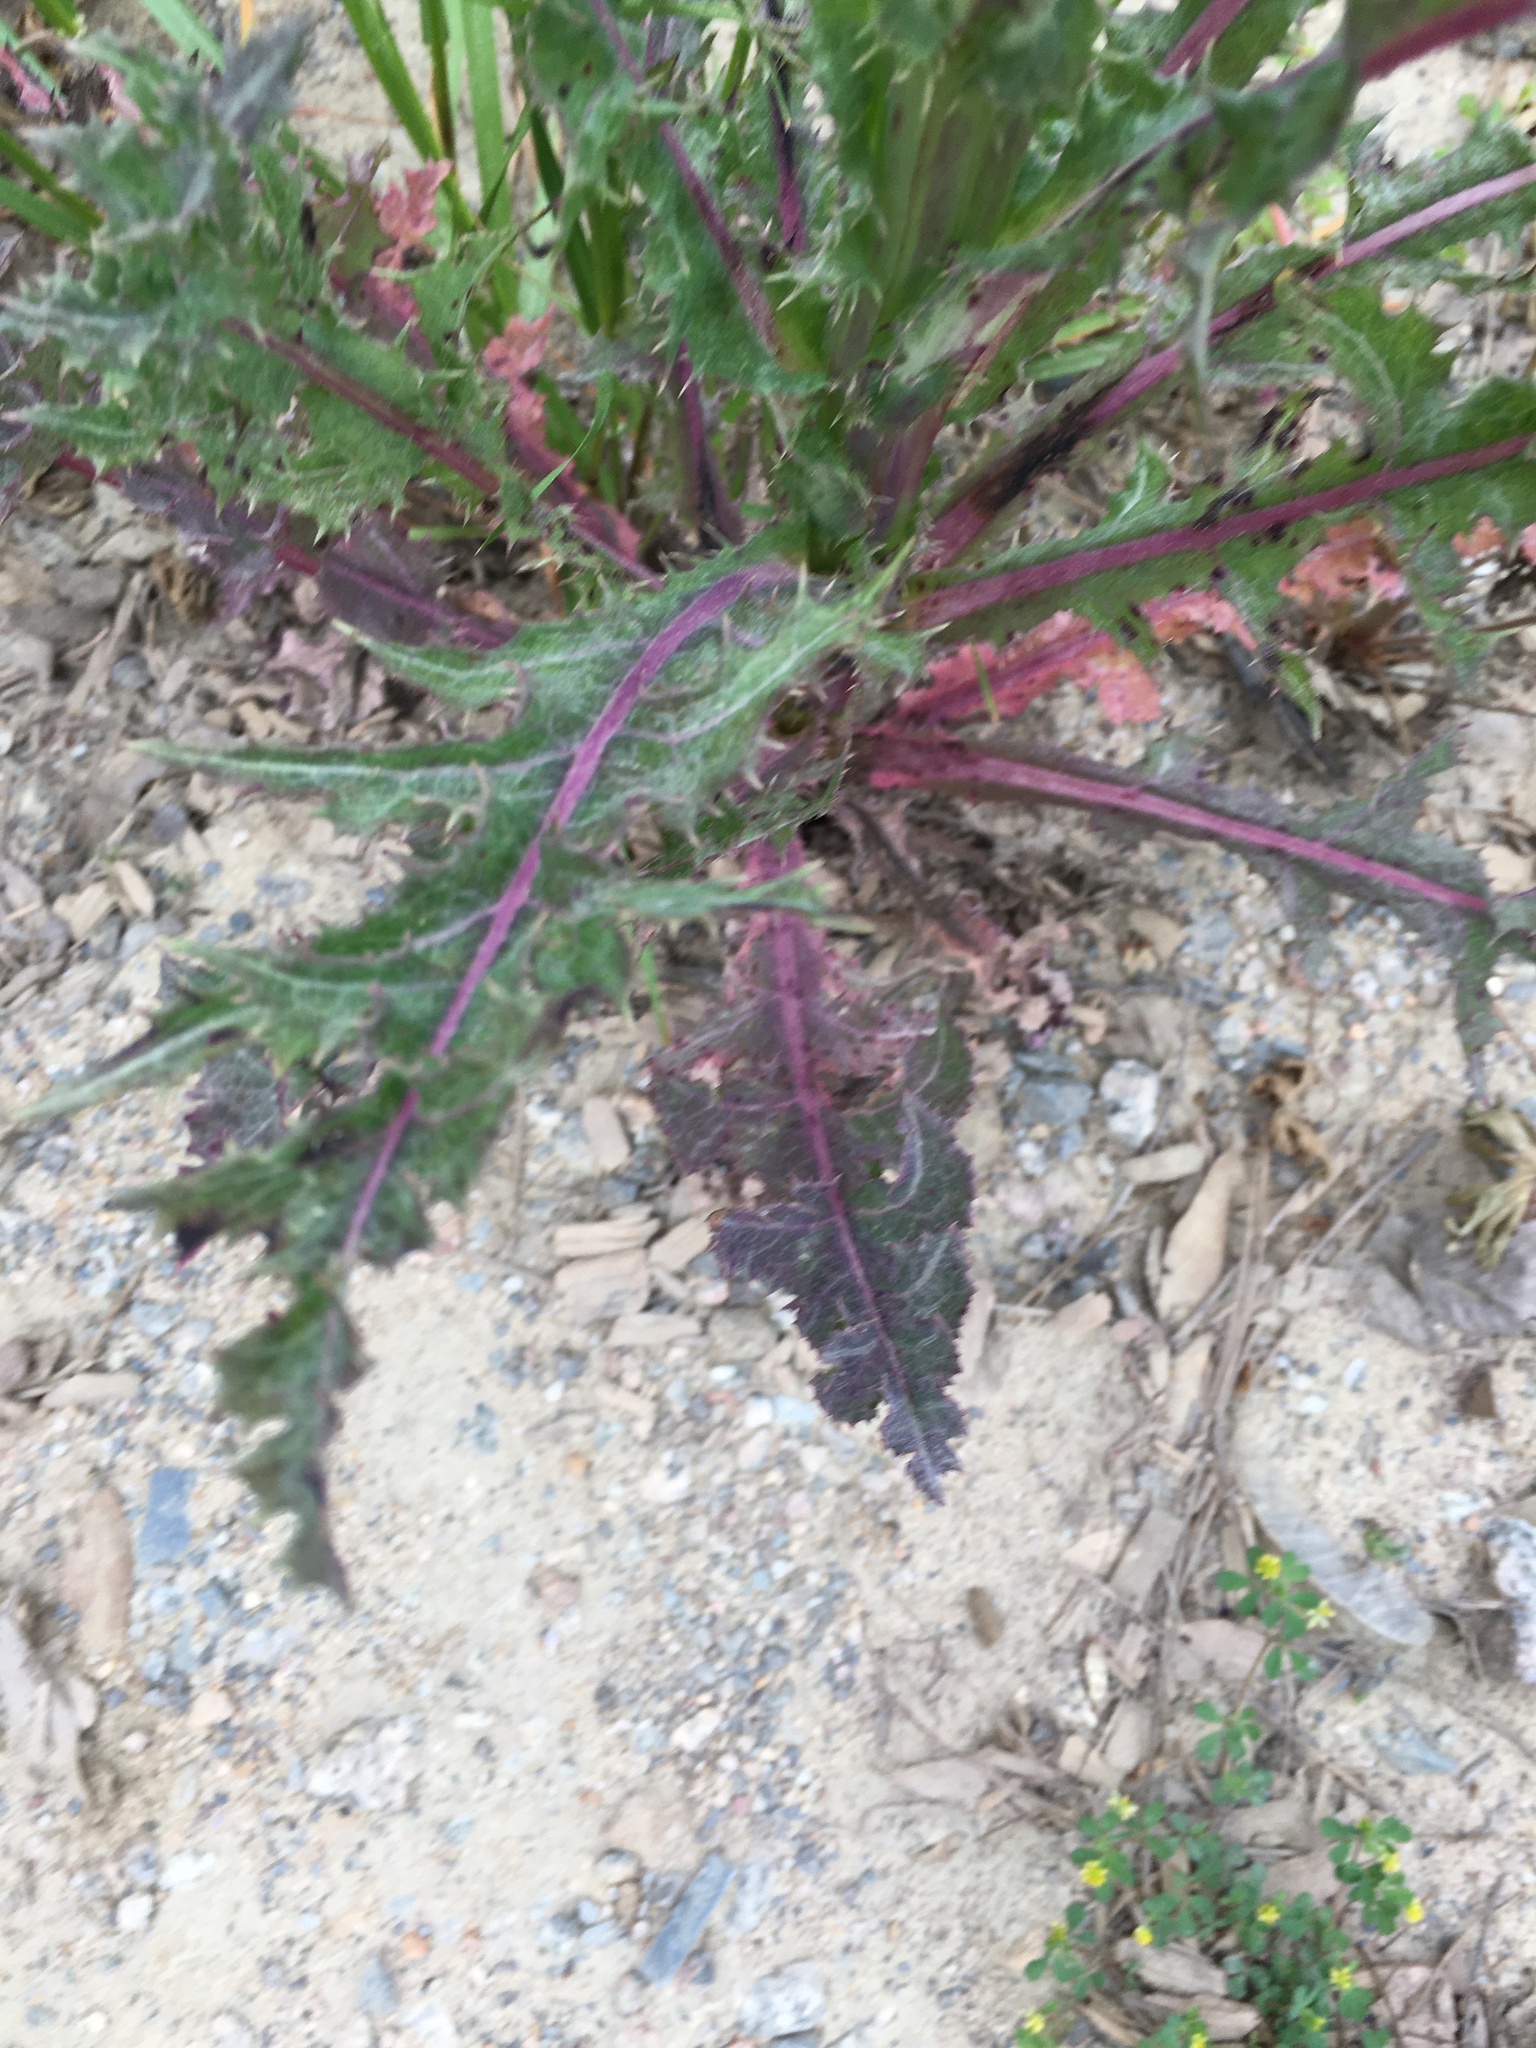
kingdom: Plantae
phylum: Tracheophyta
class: Magnoliopsida
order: Asterales
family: Asteraceae
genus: Sonchus
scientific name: Sonchus asper
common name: Prickly sow-thistle
